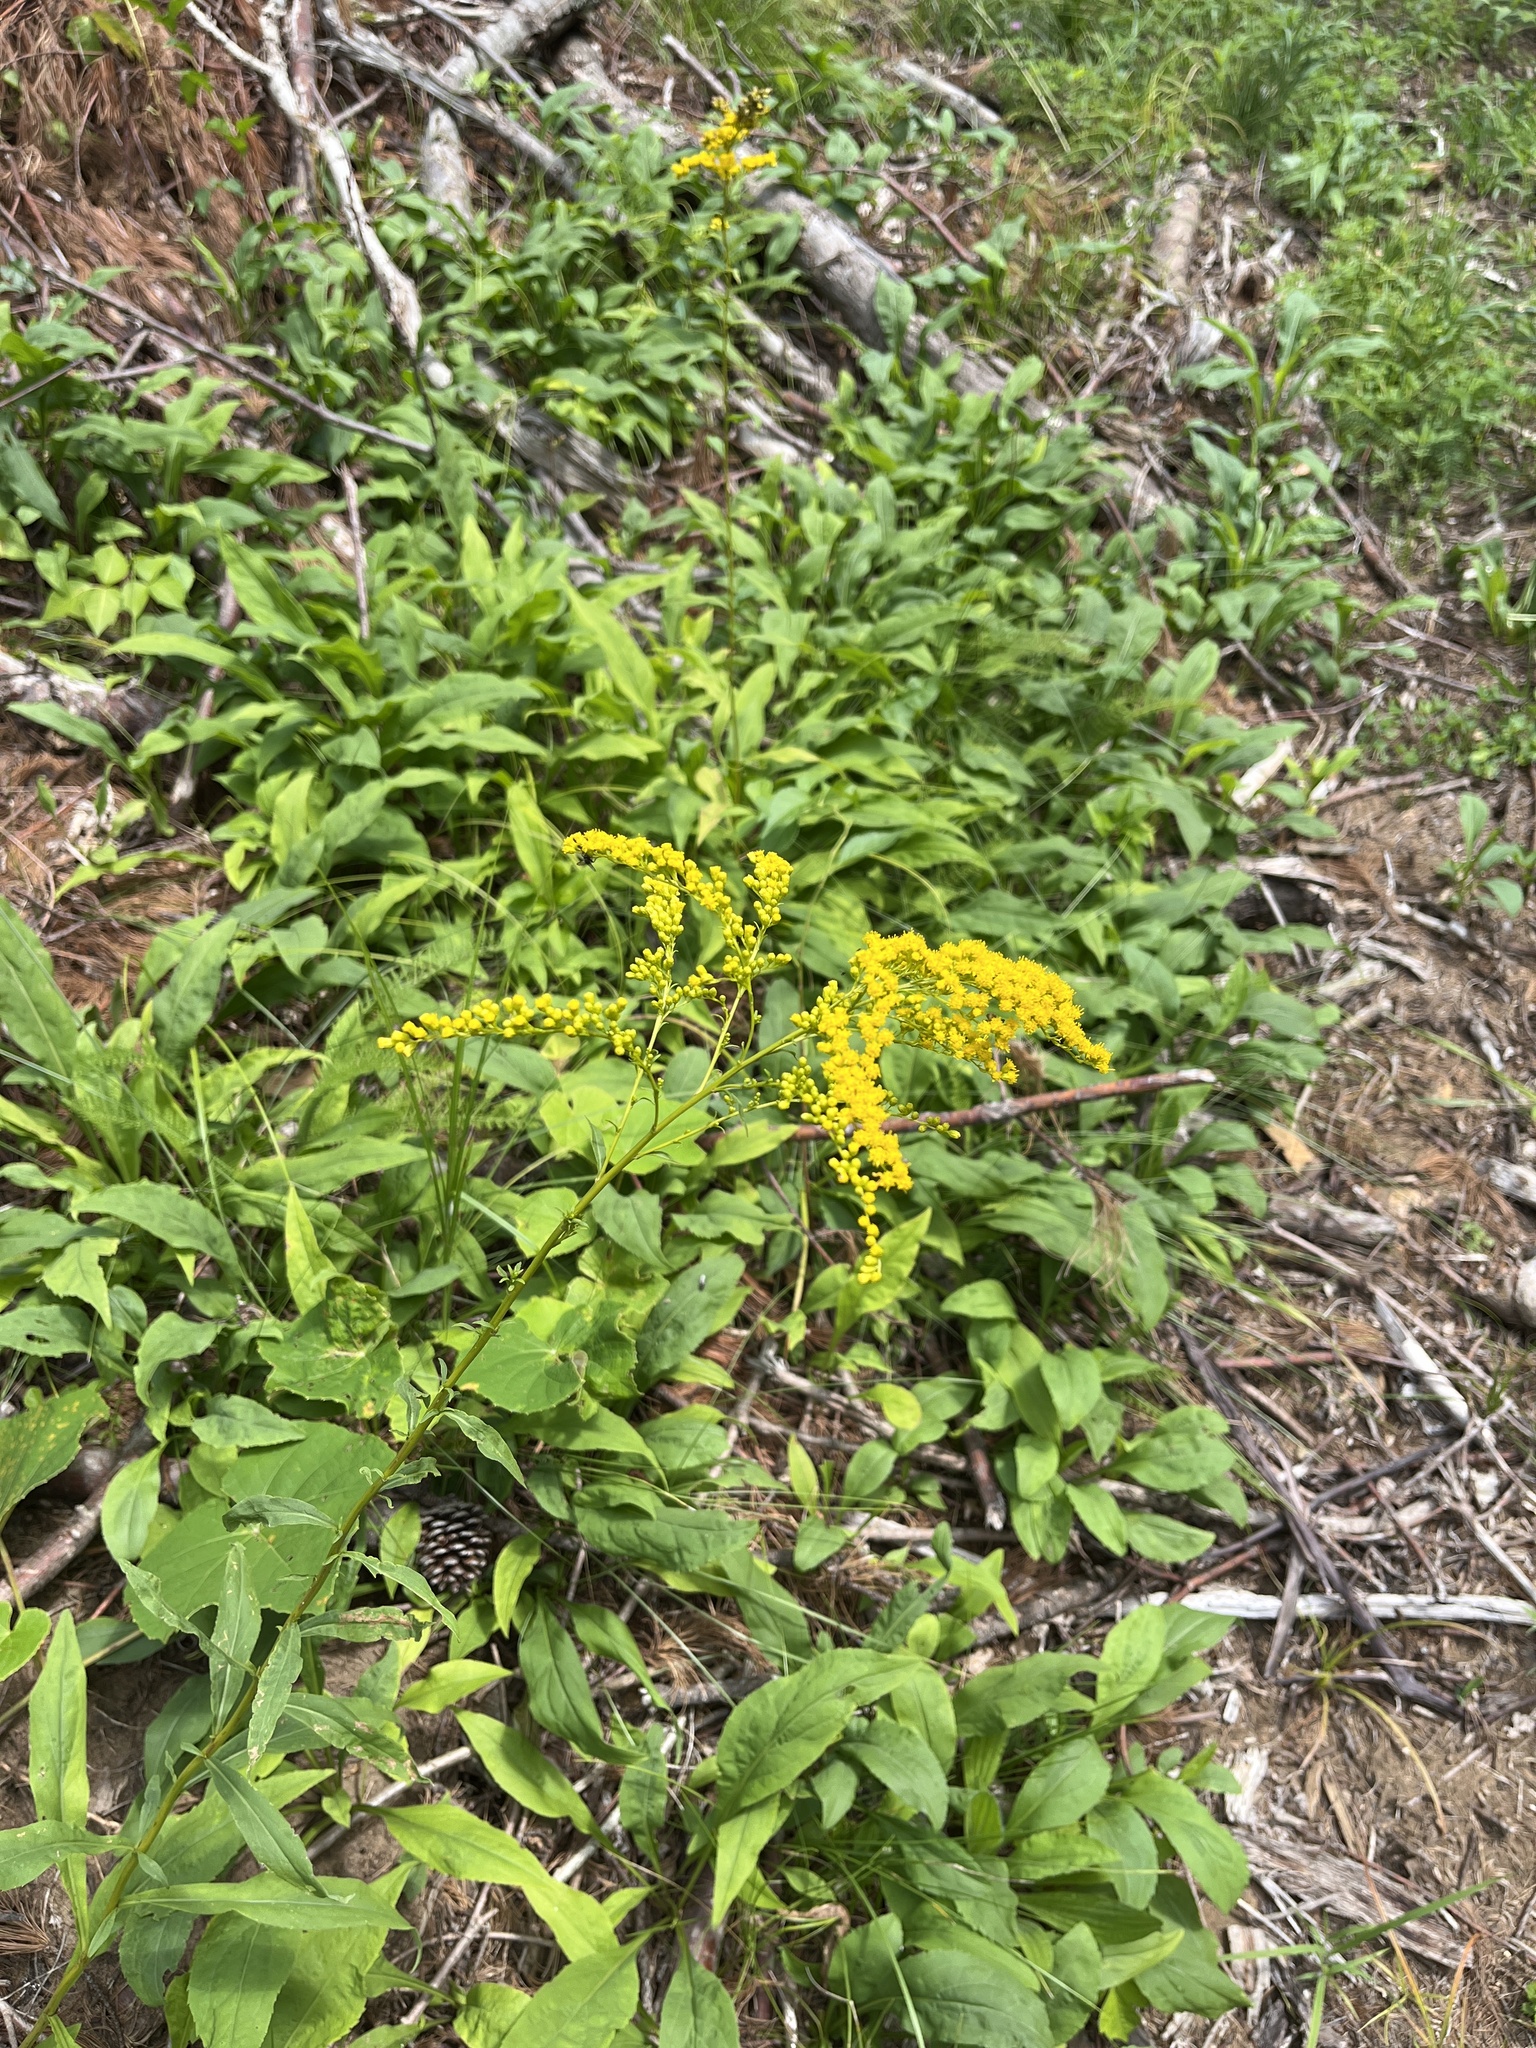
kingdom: Plantae
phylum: Tracheophyta
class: Magnoliopsida
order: Asterales
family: Asteraceae
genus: Solidago
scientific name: Solidago juncea
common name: Early goldenrod
